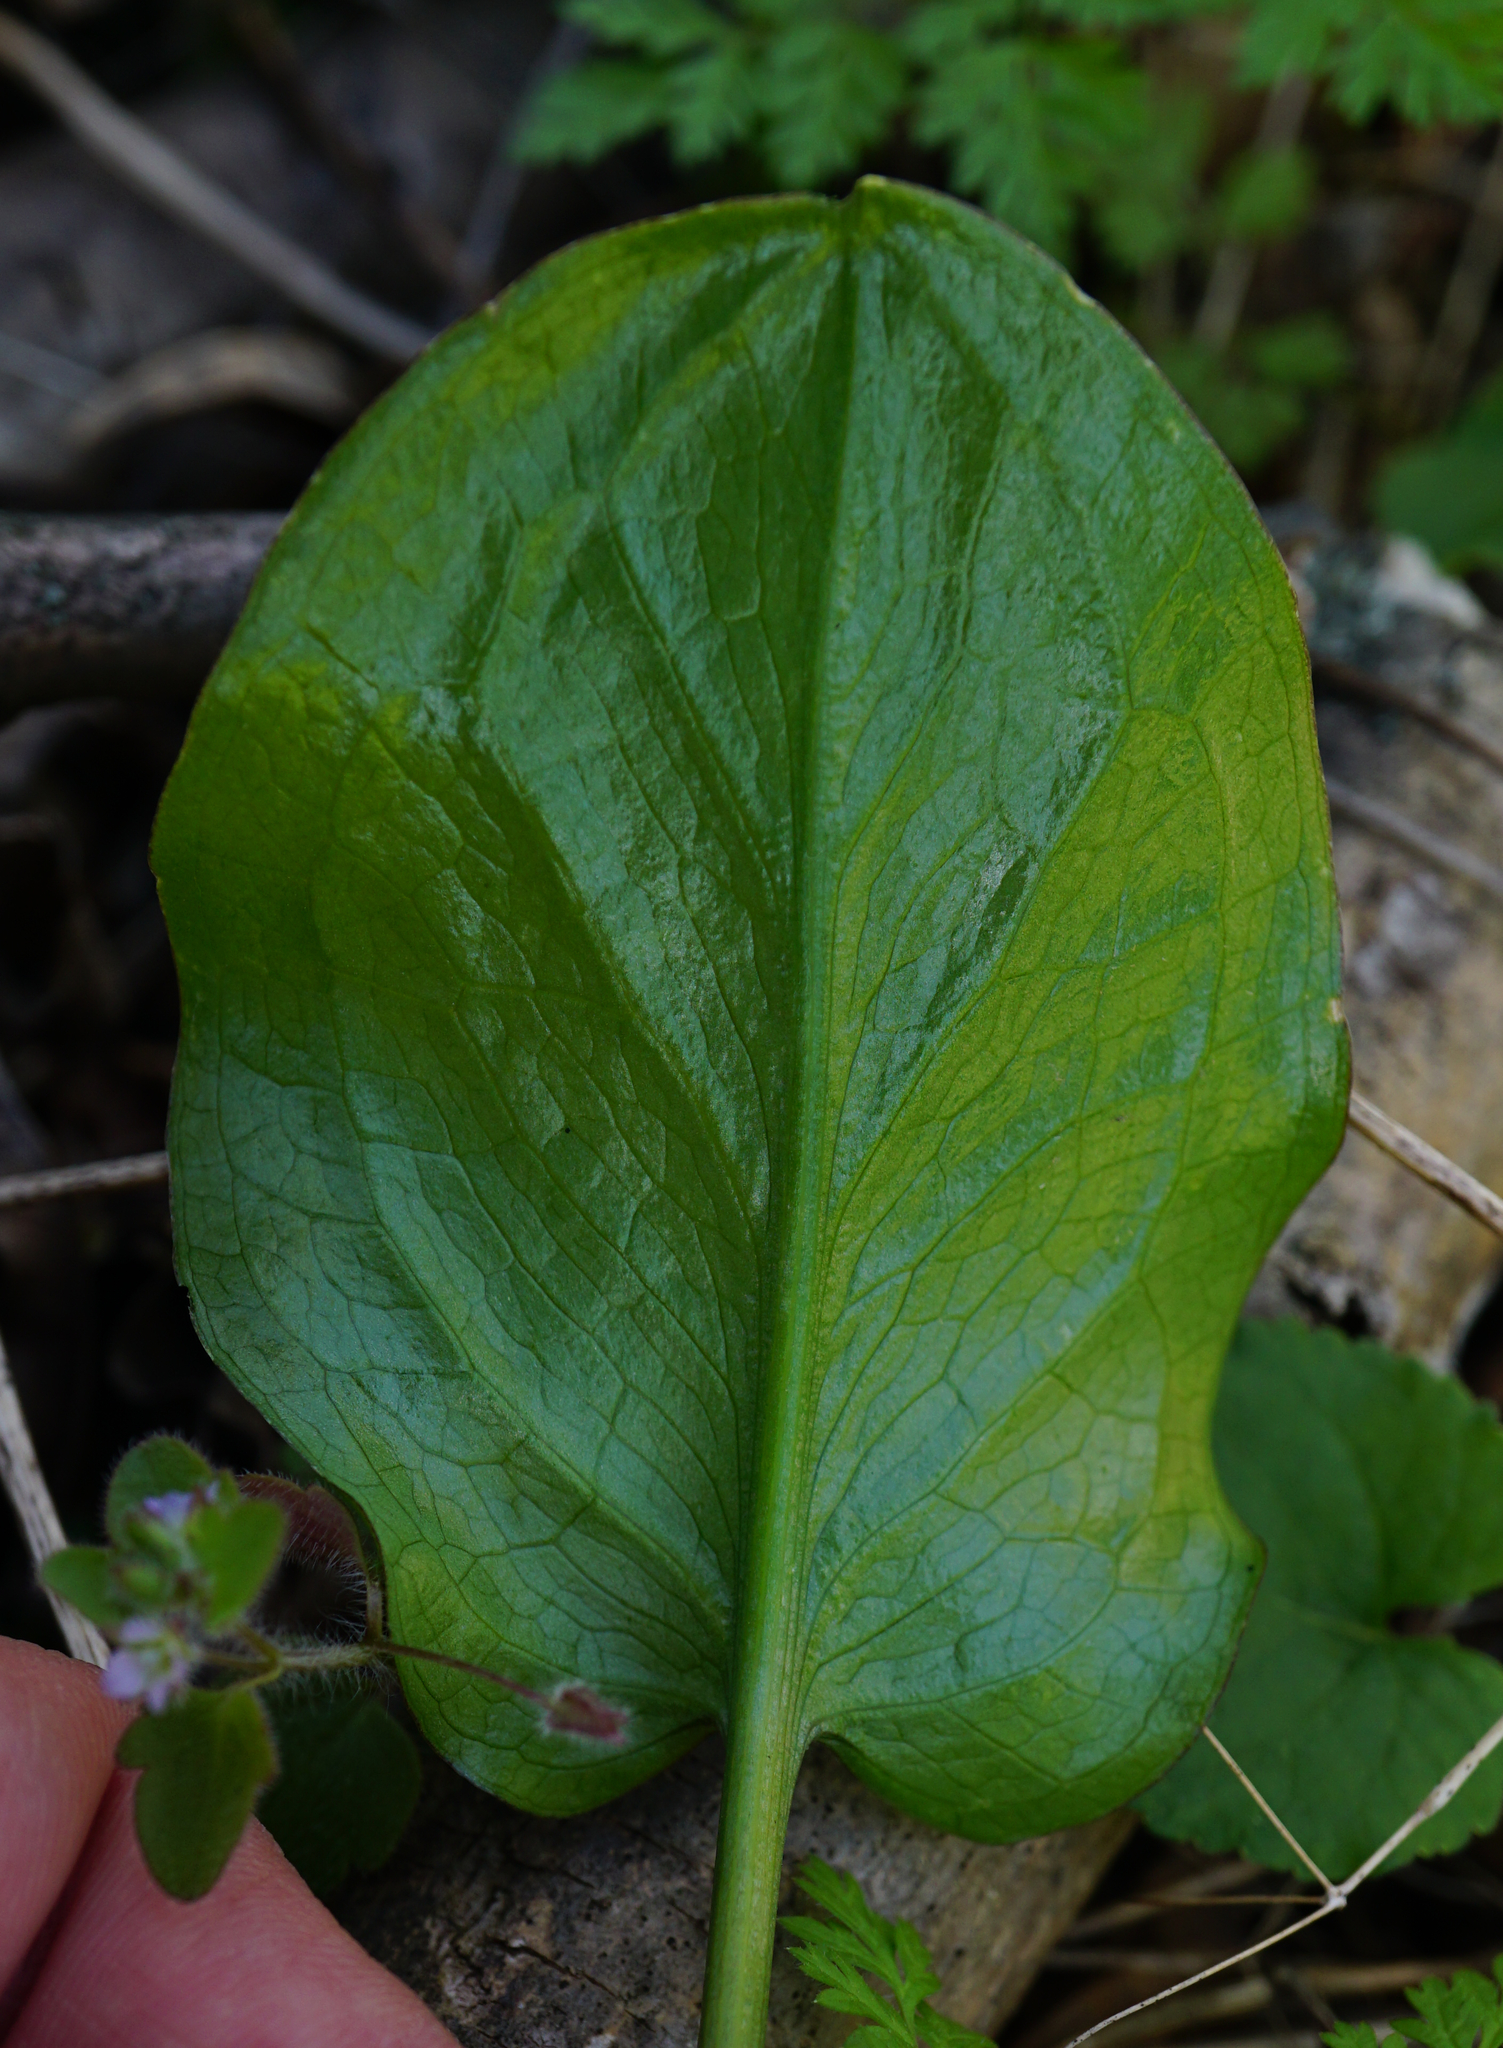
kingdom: Plantae
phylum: Tracheophyta
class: Liliopsida
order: Alismatales
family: Araceae
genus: Arum
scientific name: Arum cylindraceum
